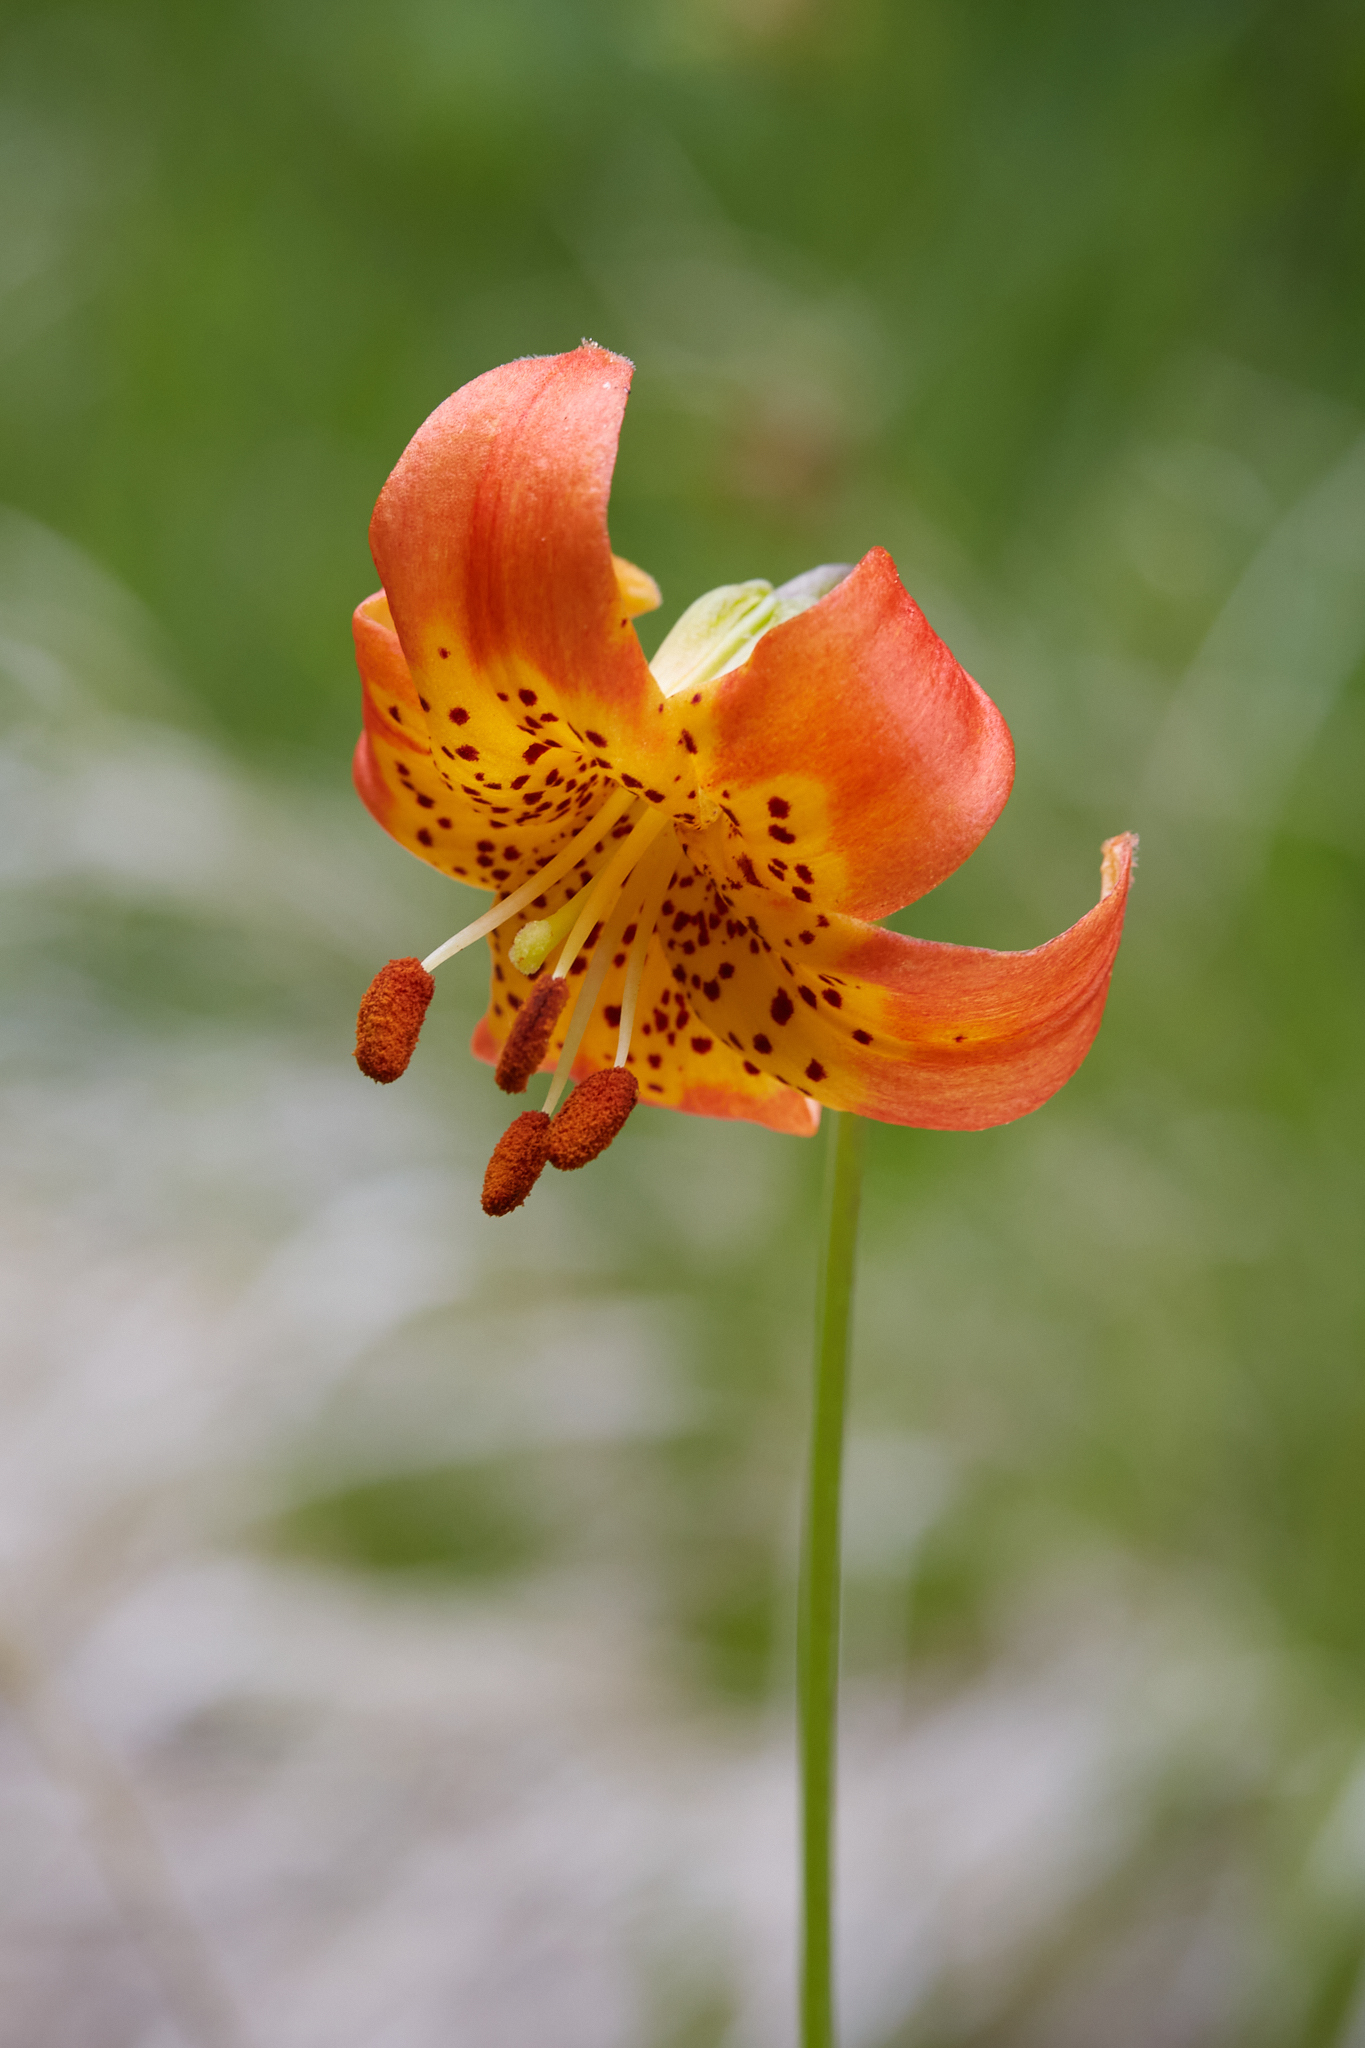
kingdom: Plantae
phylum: Tracheophyta
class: Liliopsida
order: Liliales
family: Liliaceae
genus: Lilium
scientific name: Lilium pardalinum
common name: Panther lily
